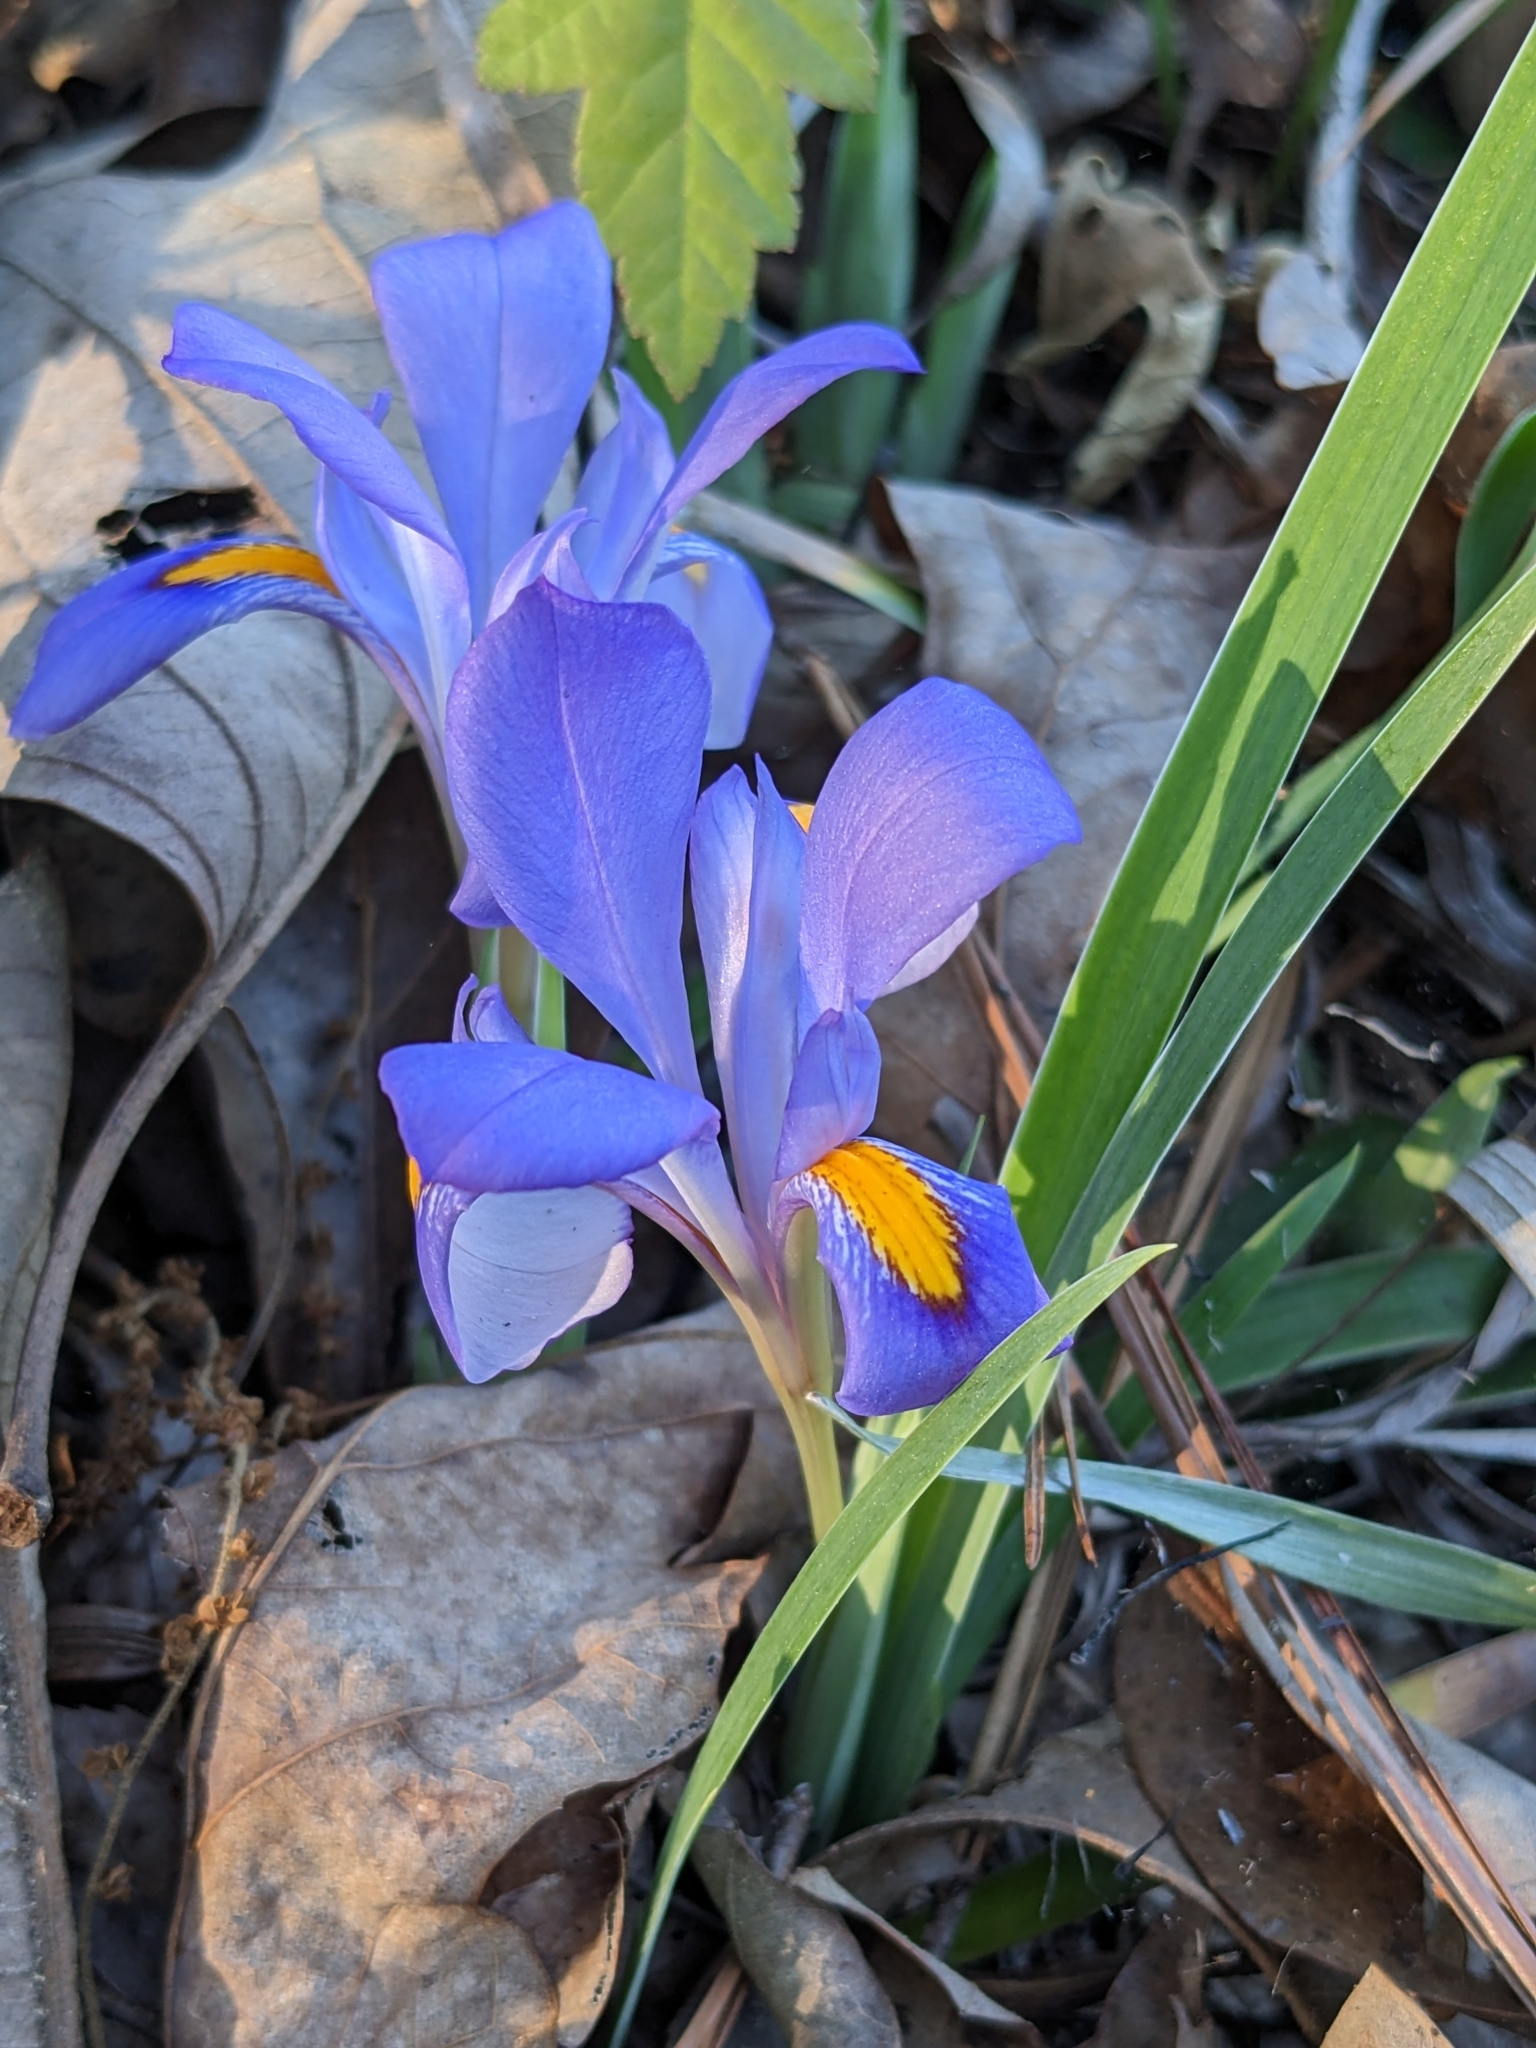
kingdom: Plantae
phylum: Tracheophyta
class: Liliopsida
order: Asparagales
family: Iridaceae
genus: Iris
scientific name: Iris verna
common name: Dwarf iris
